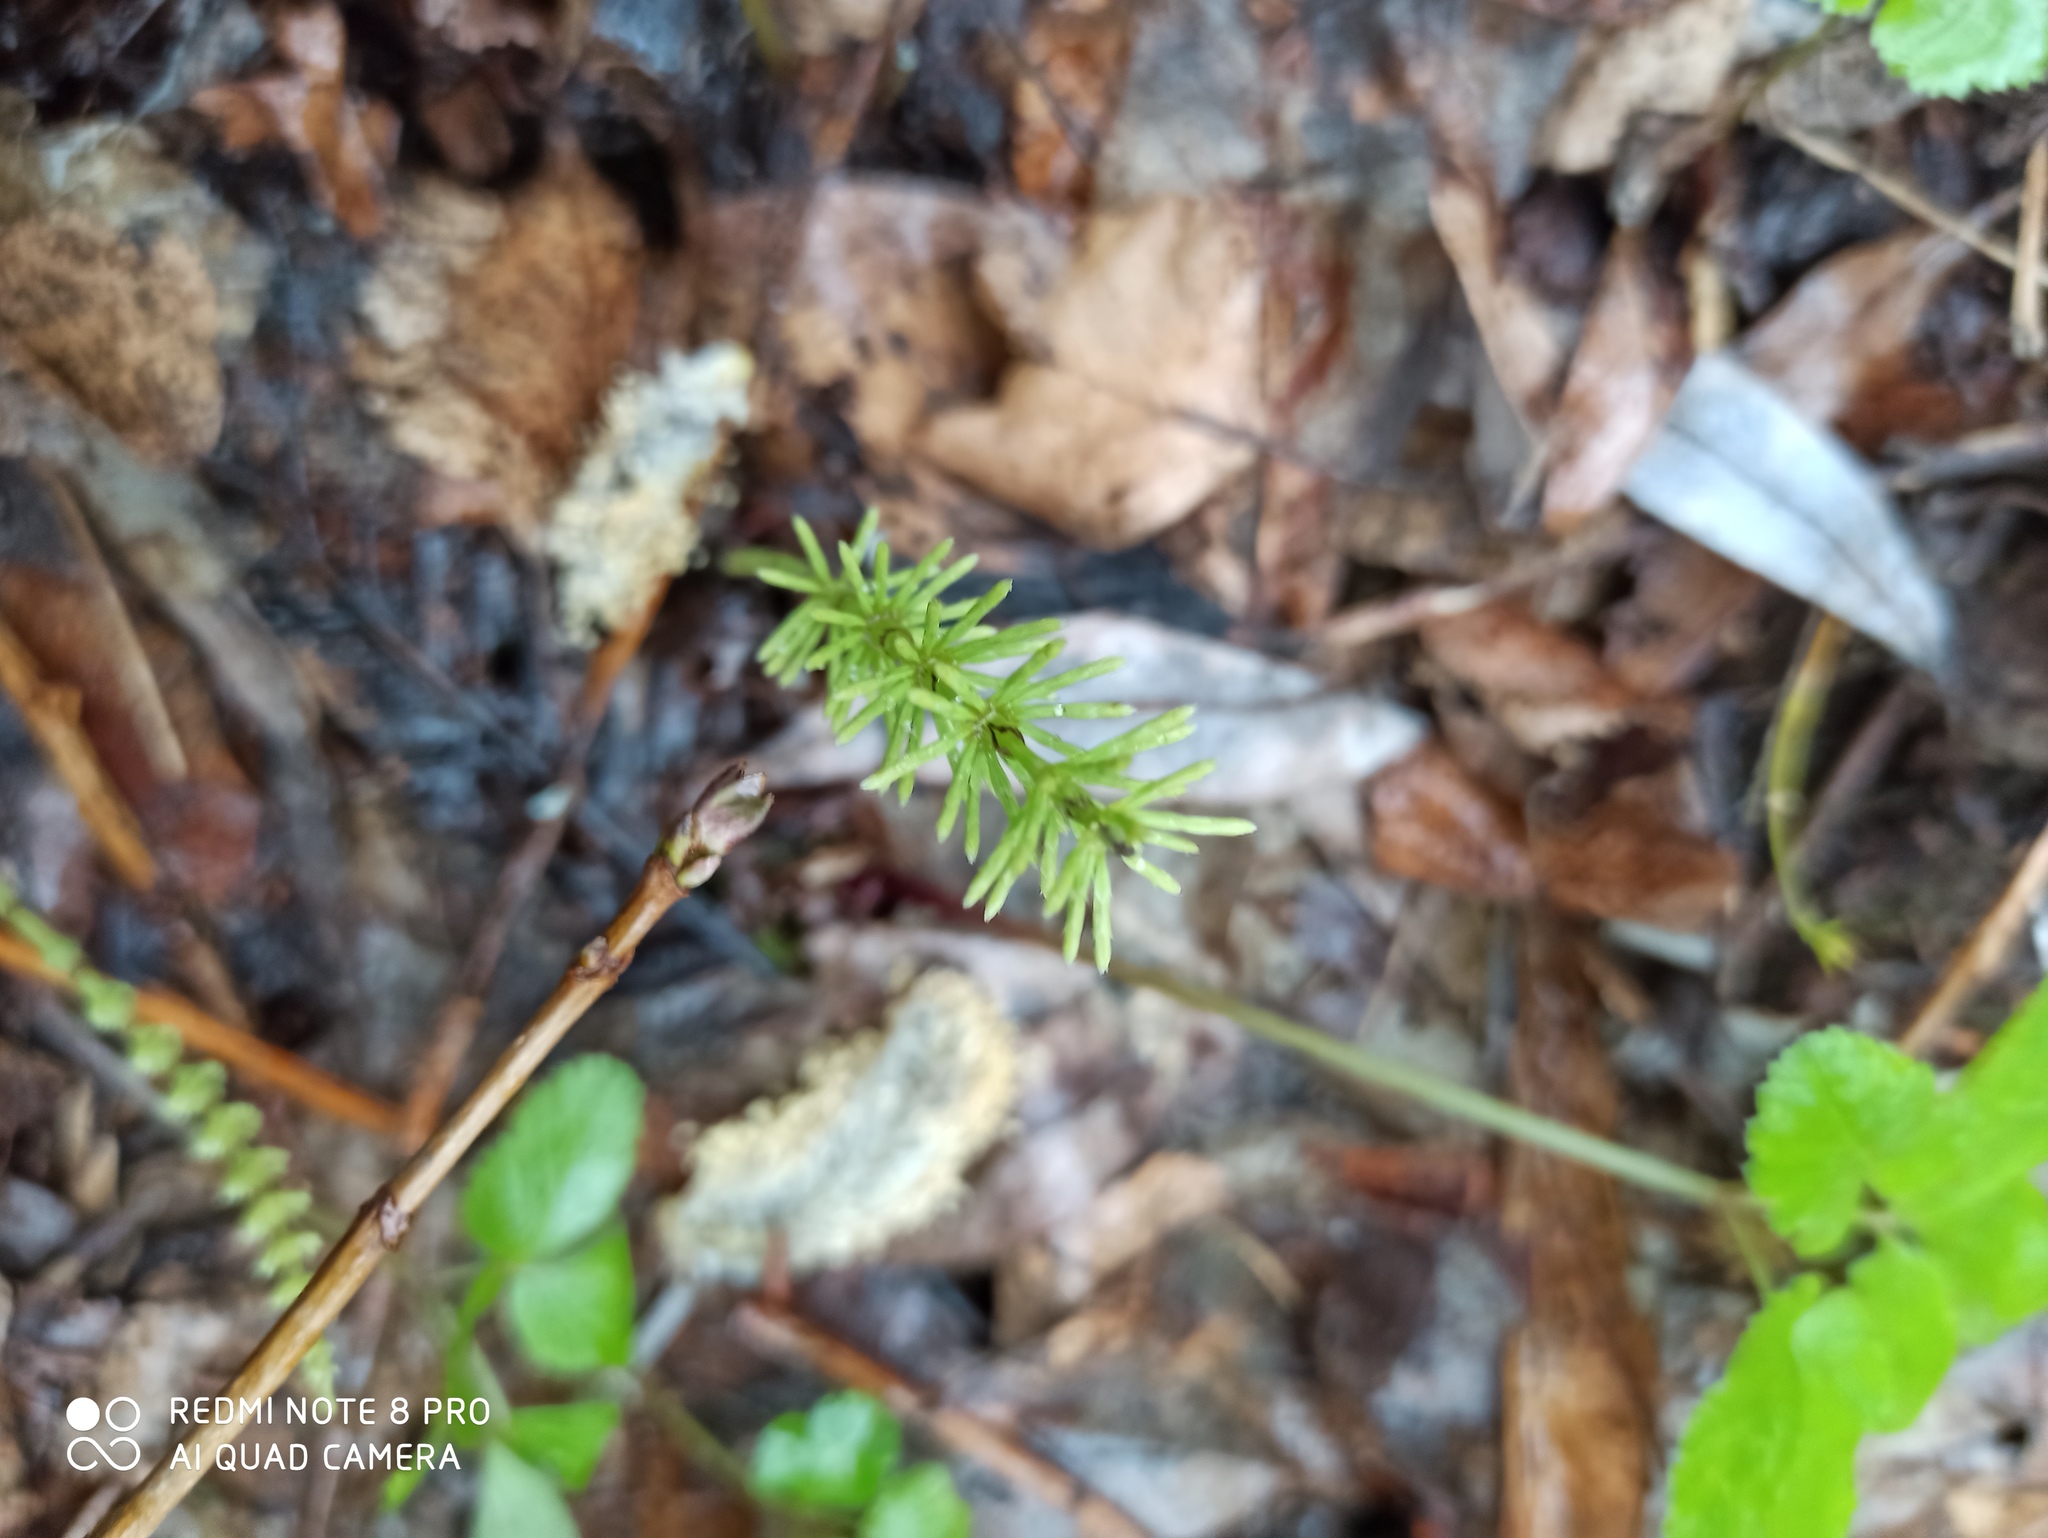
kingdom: Plantae
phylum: Tracheophyta
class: Polypodiopsida
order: Equisetales
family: Equisetaceae
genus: Equisetum
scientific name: Equisetum pratense
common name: Meadow horsetail
